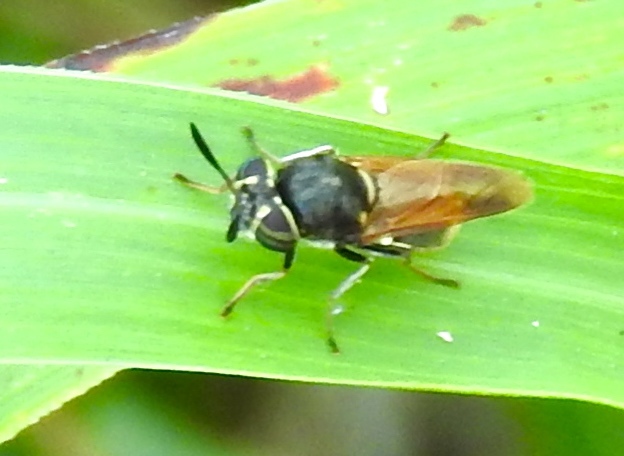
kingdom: Animalia
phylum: Arthropoda
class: Insecta
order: Diptera
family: Stratiomyidae
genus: Hoplitimyia
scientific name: Hoplitimyia
